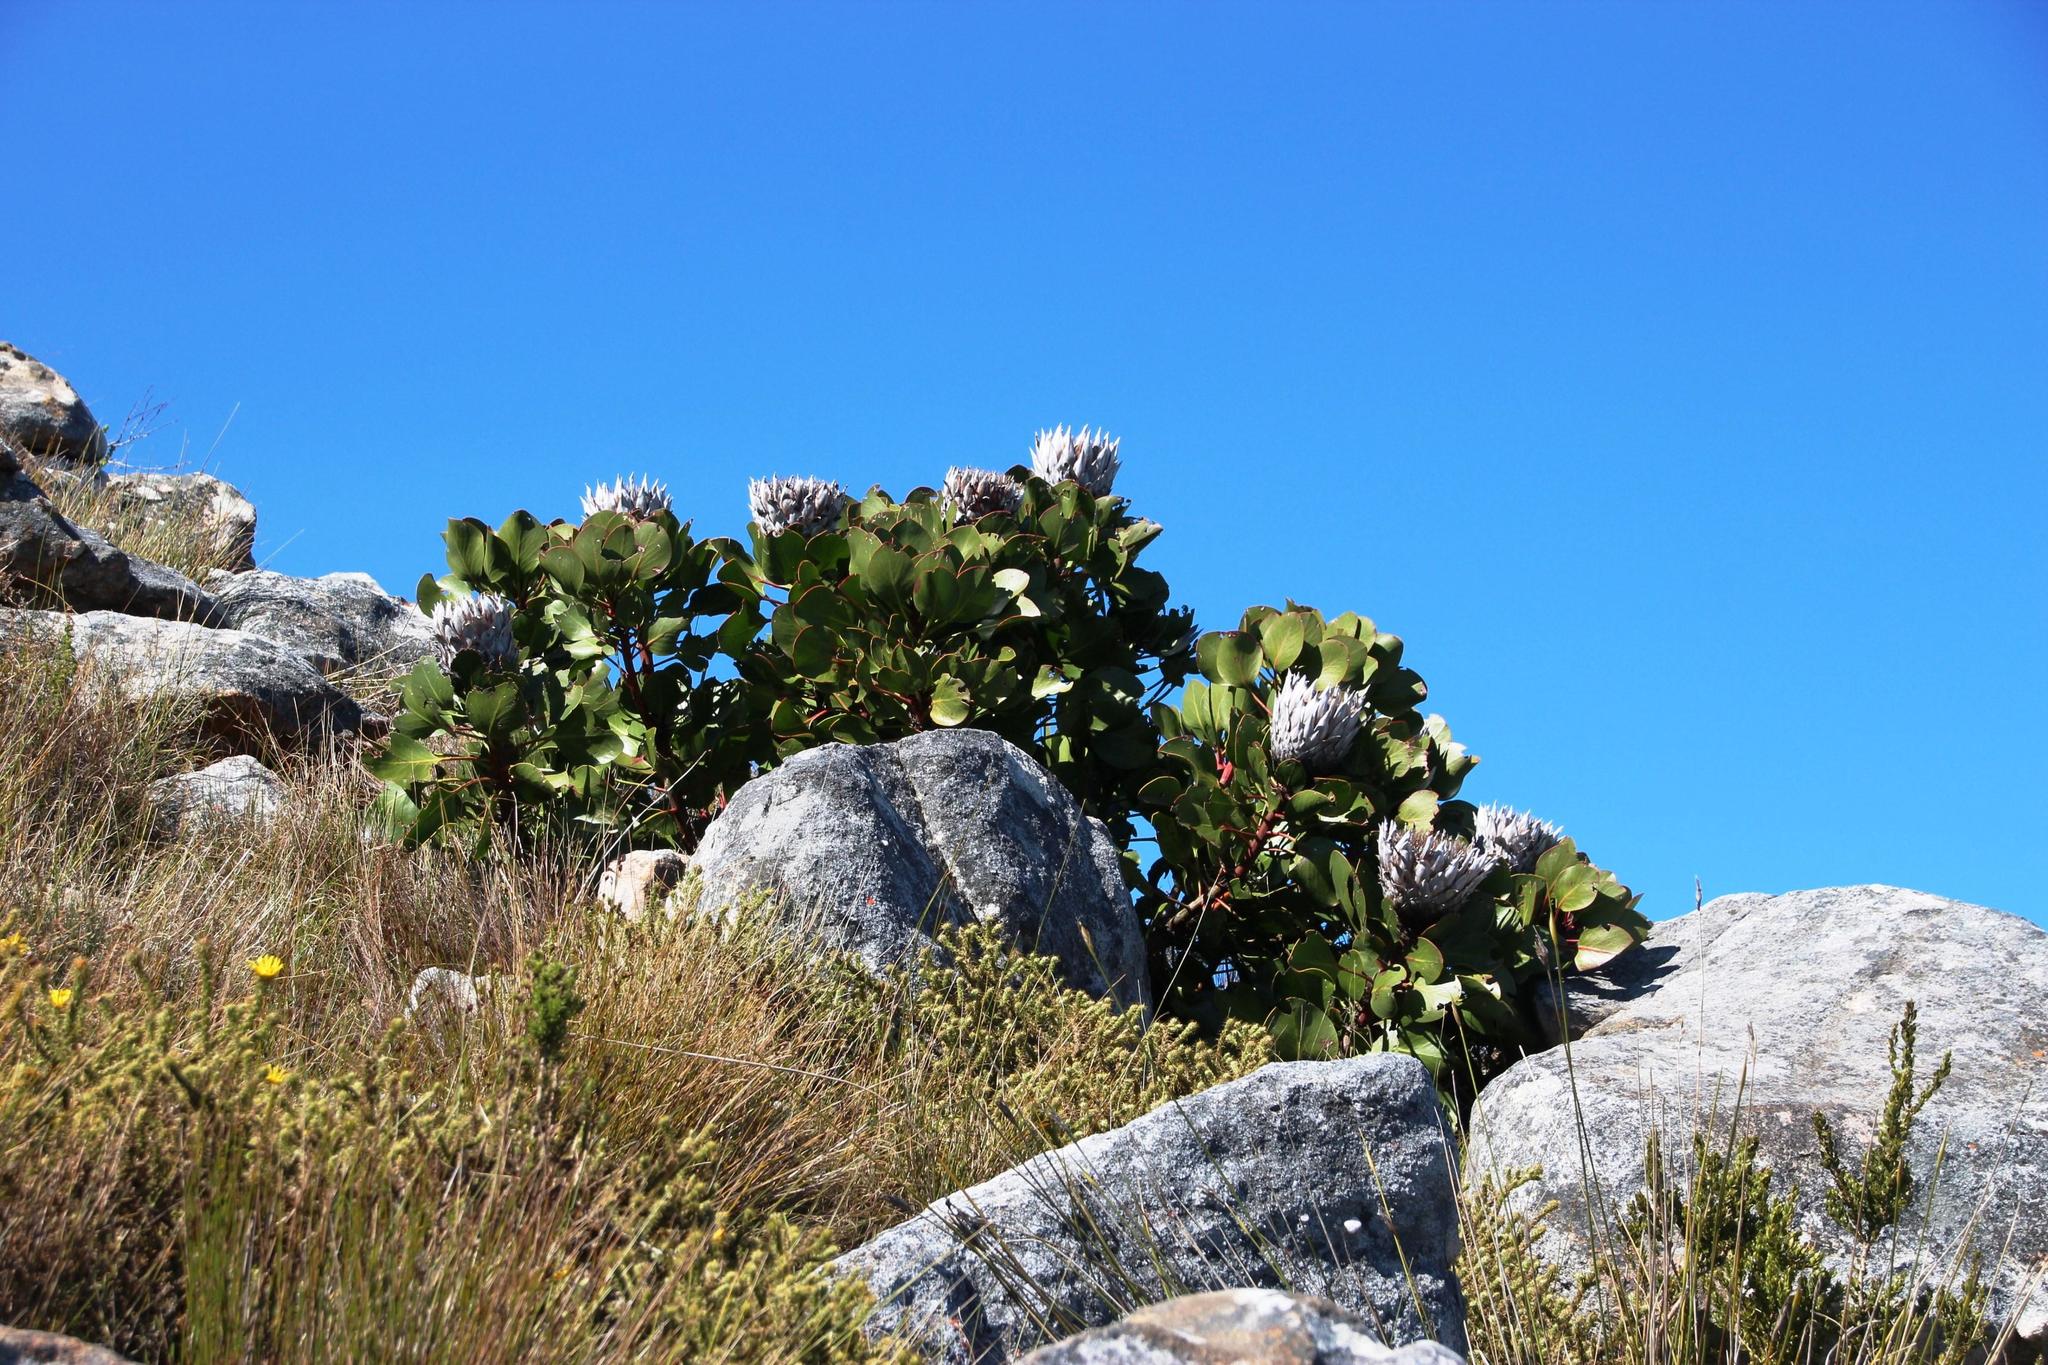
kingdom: Plantae
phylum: Tracheophyta
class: Magnoliopsida
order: Proteales
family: Proteaceae
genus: Protea
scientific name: Protea cynaroides
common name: King protea
